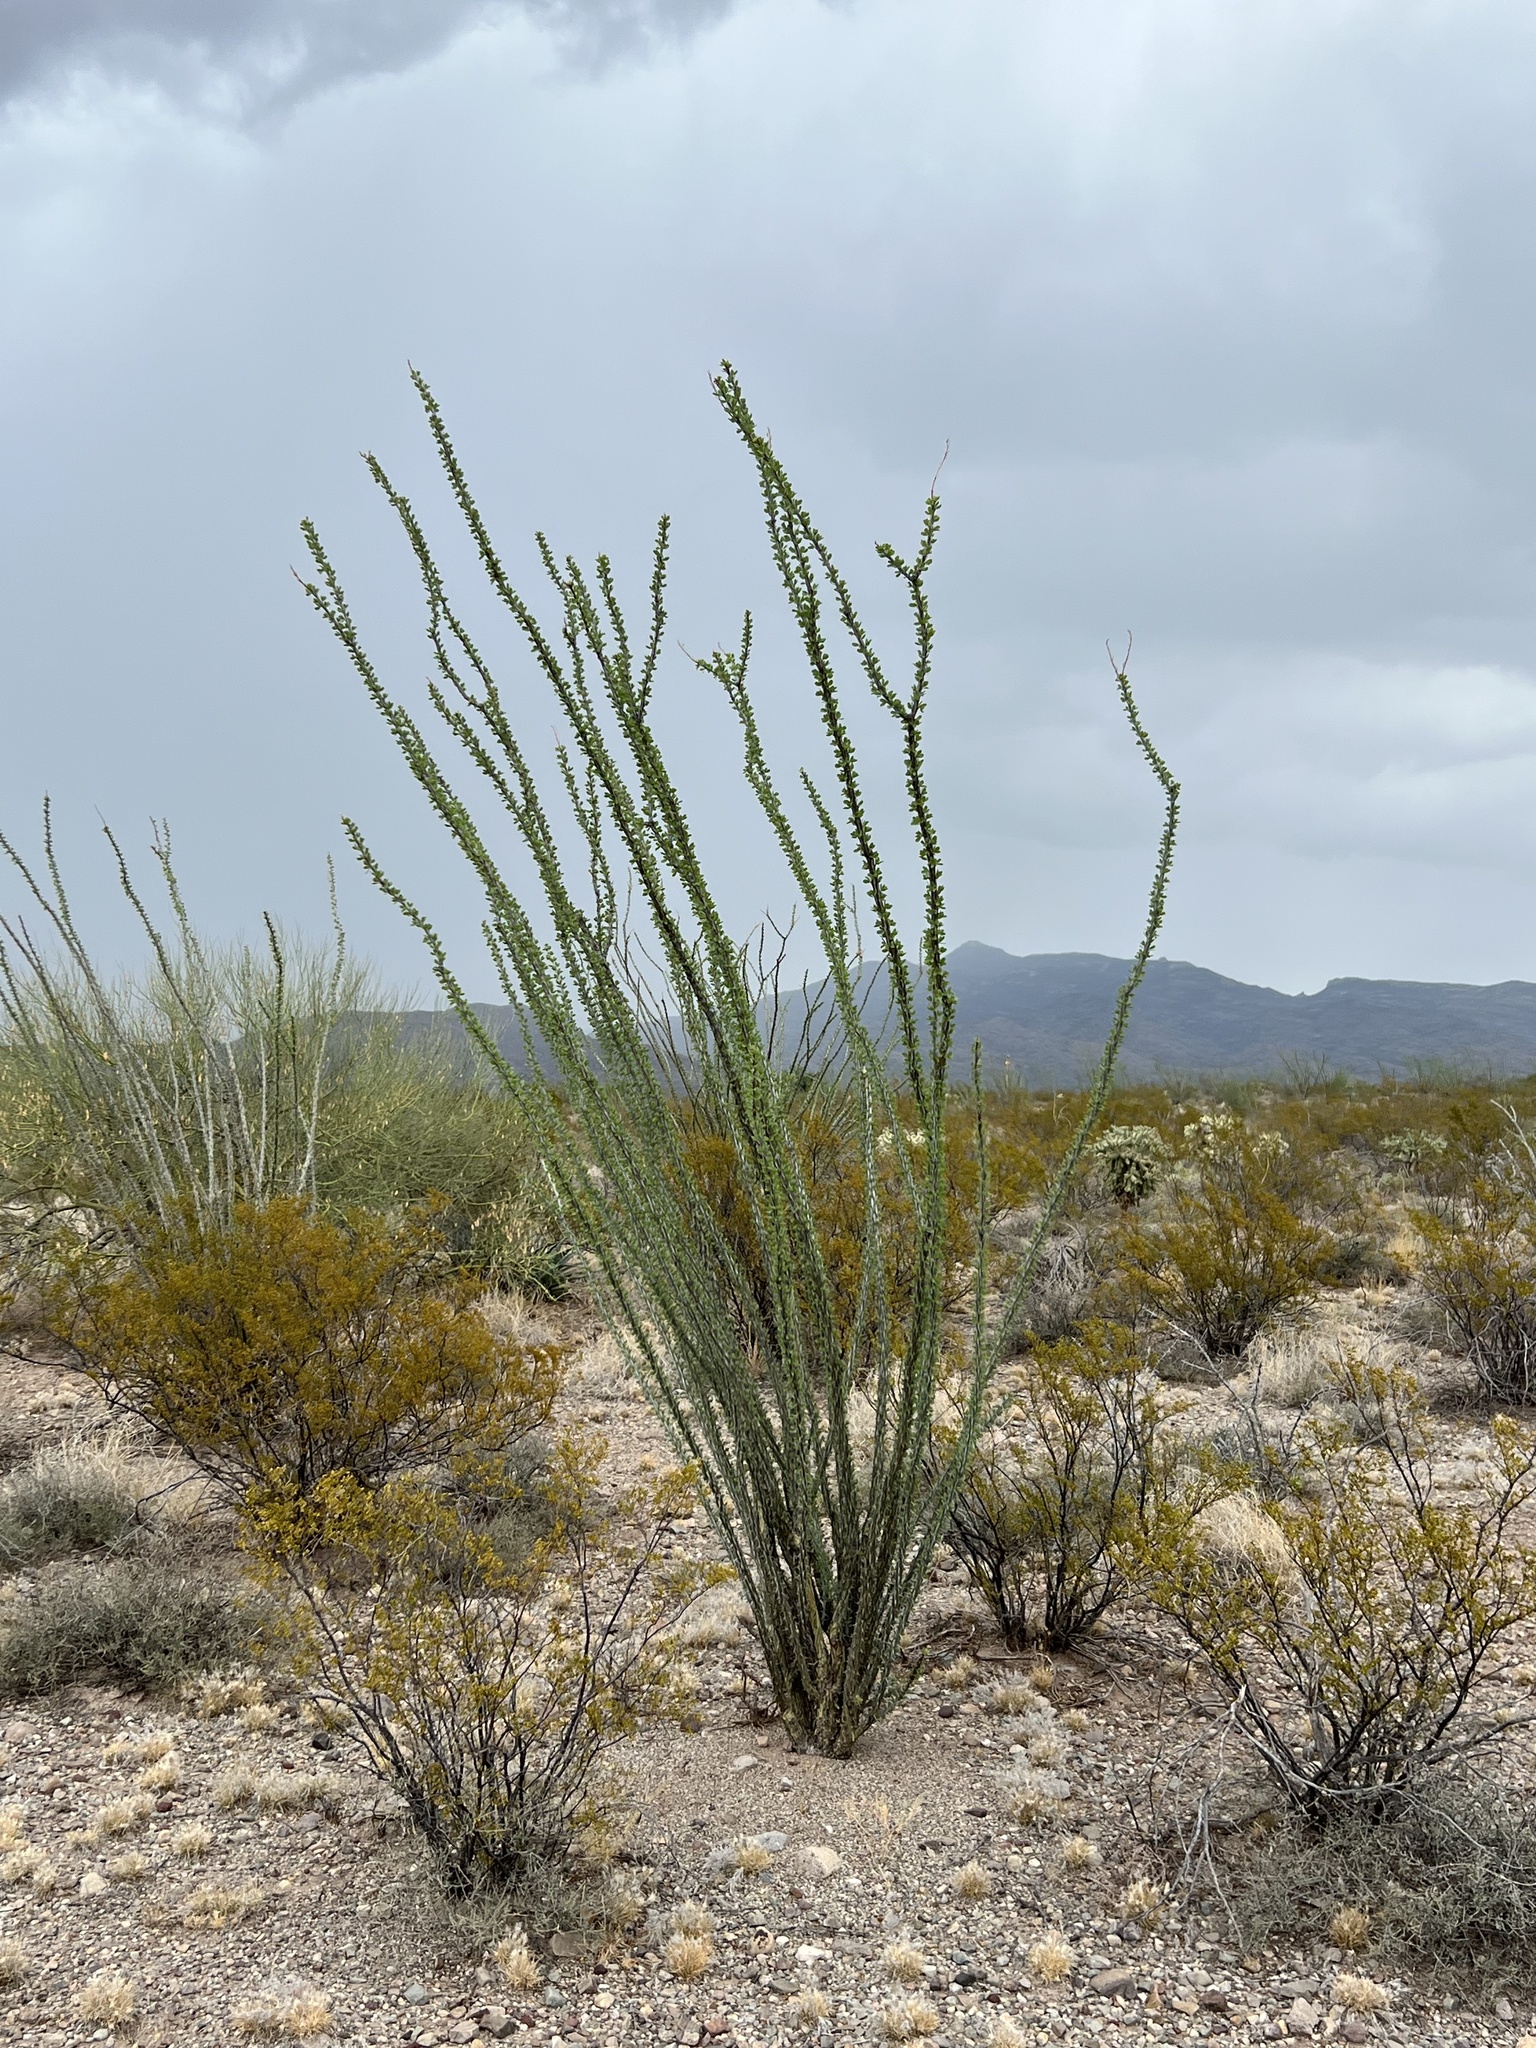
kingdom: Plantae
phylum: Tracheophyta
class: Magnoliopsida
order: Ericales
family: Fouquieriaceae
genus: Fouquieria
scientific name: Fouquieria splendens
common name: Vine-cactus
